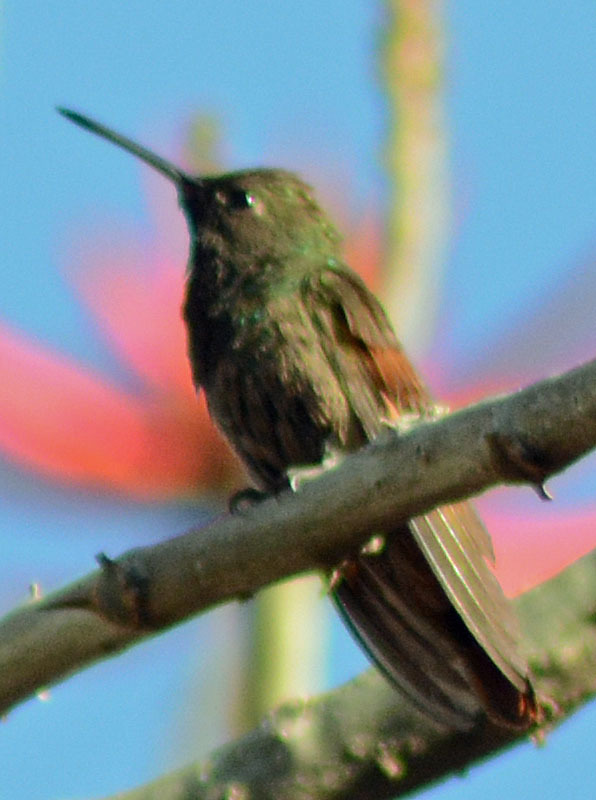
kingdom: Animalia
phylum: Chordata
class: Aves
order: Apodiformes
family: Trochilidae
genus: Saucerottia
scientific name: Saucerottia beryllina
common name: Berylline hummingbird
